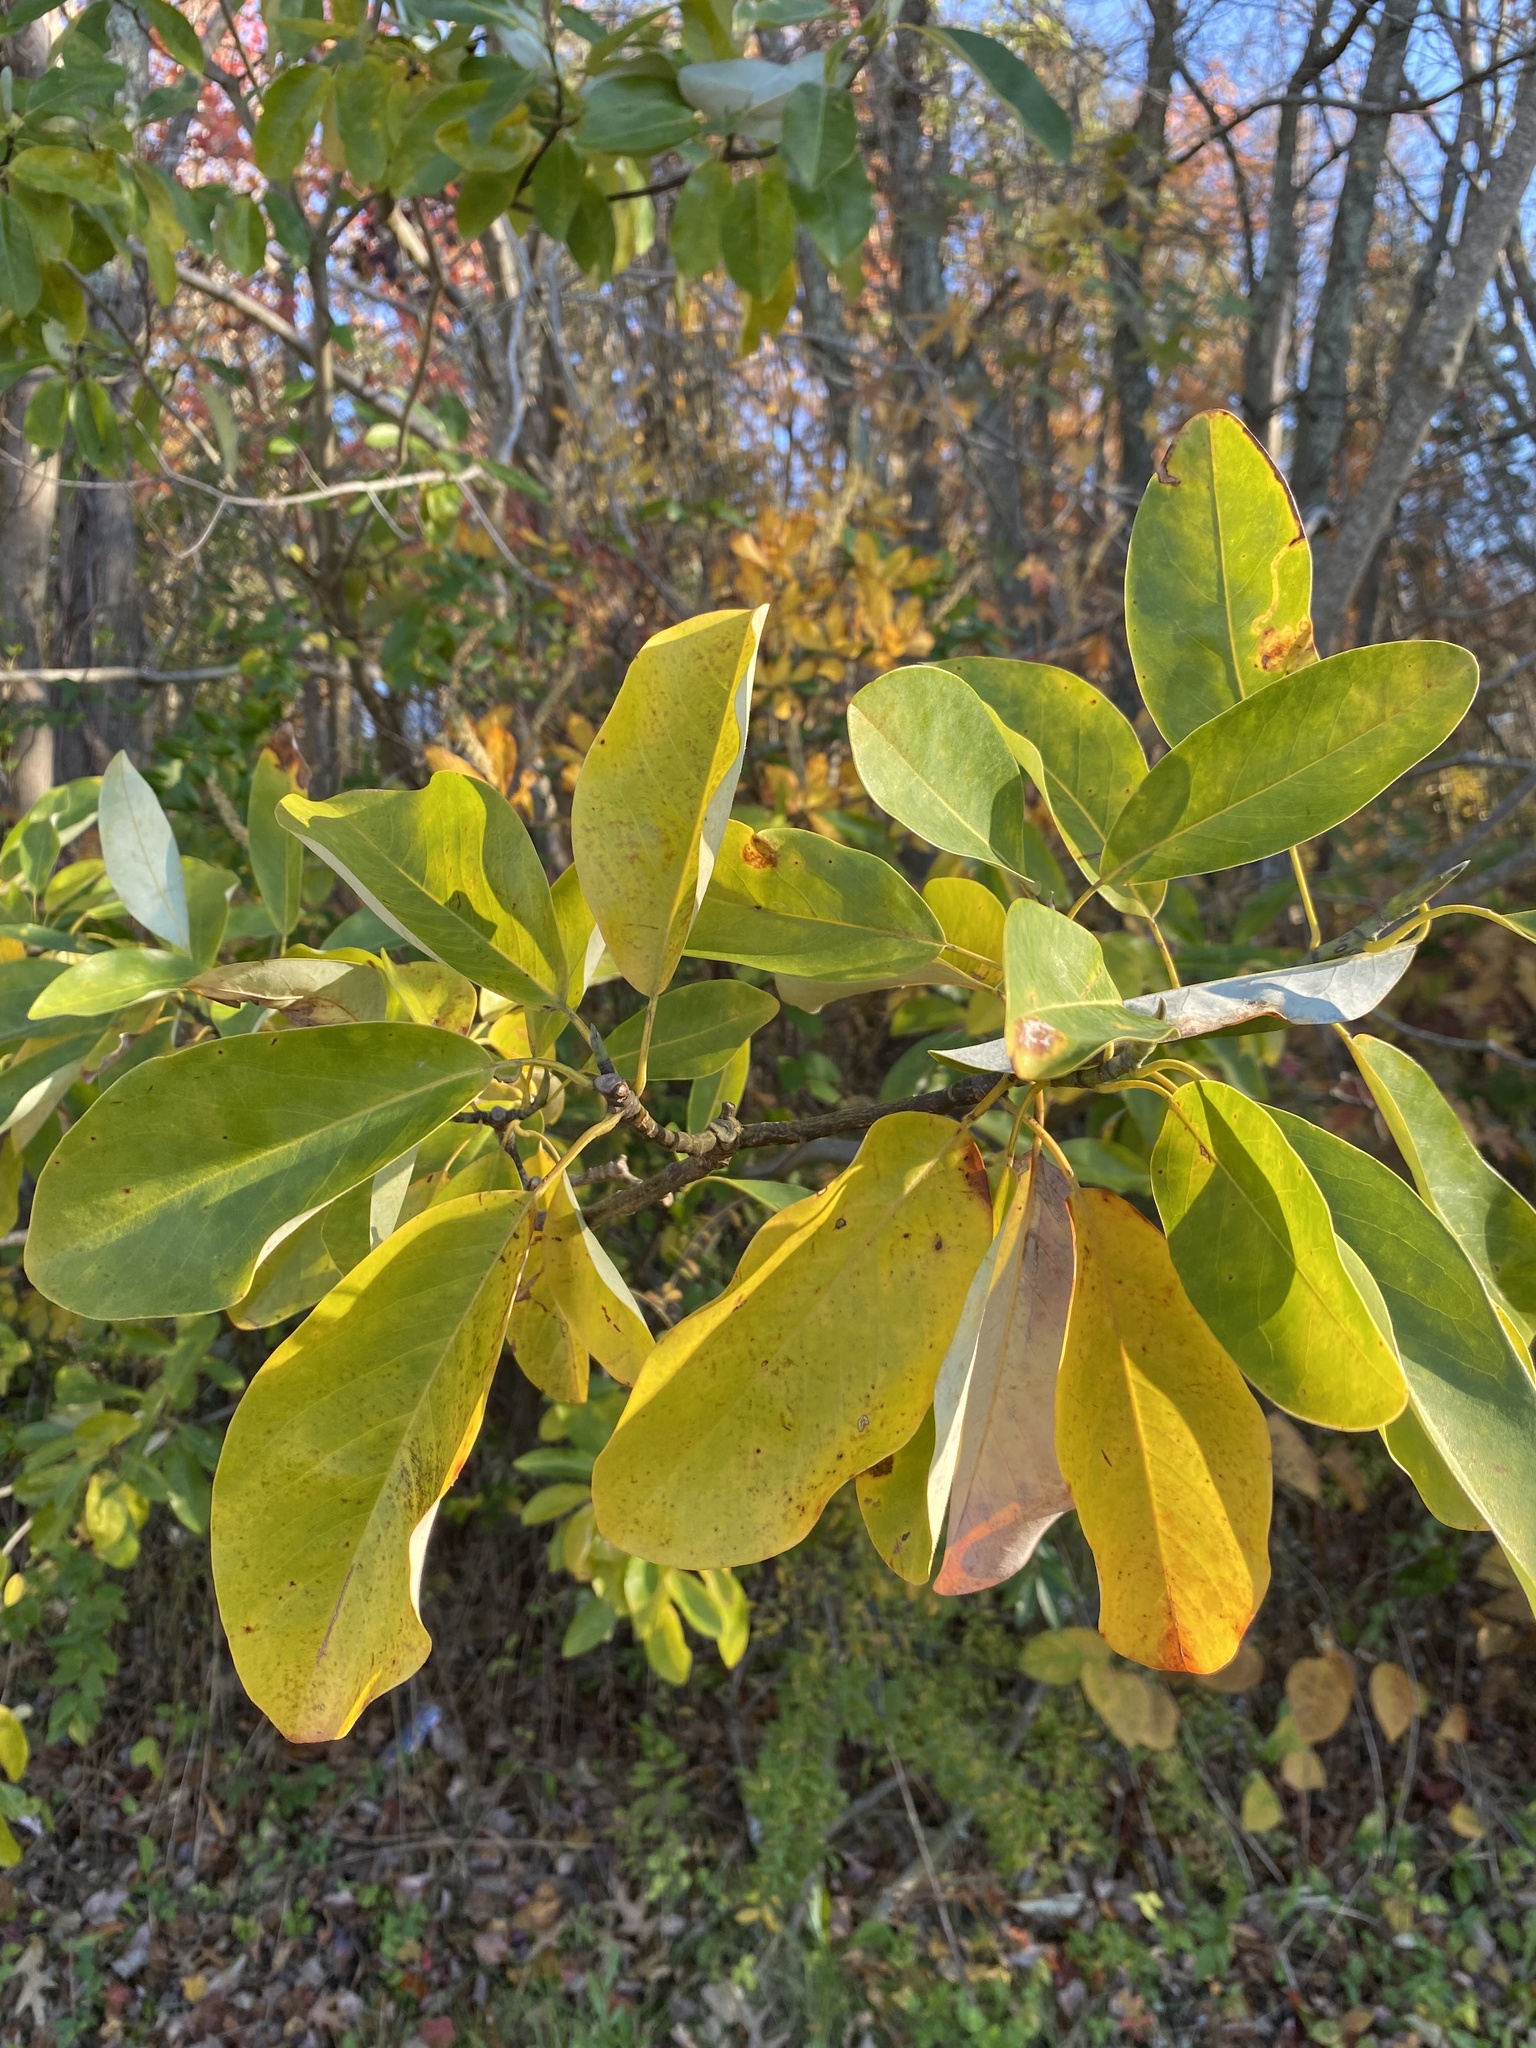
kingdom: Plantae
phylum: Tracheophyta
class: Magnoliopsida
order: Magnoliales
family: Magnoliaceae
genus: Magnolia
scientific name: Magnolia virginiana
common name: Swamp bay
